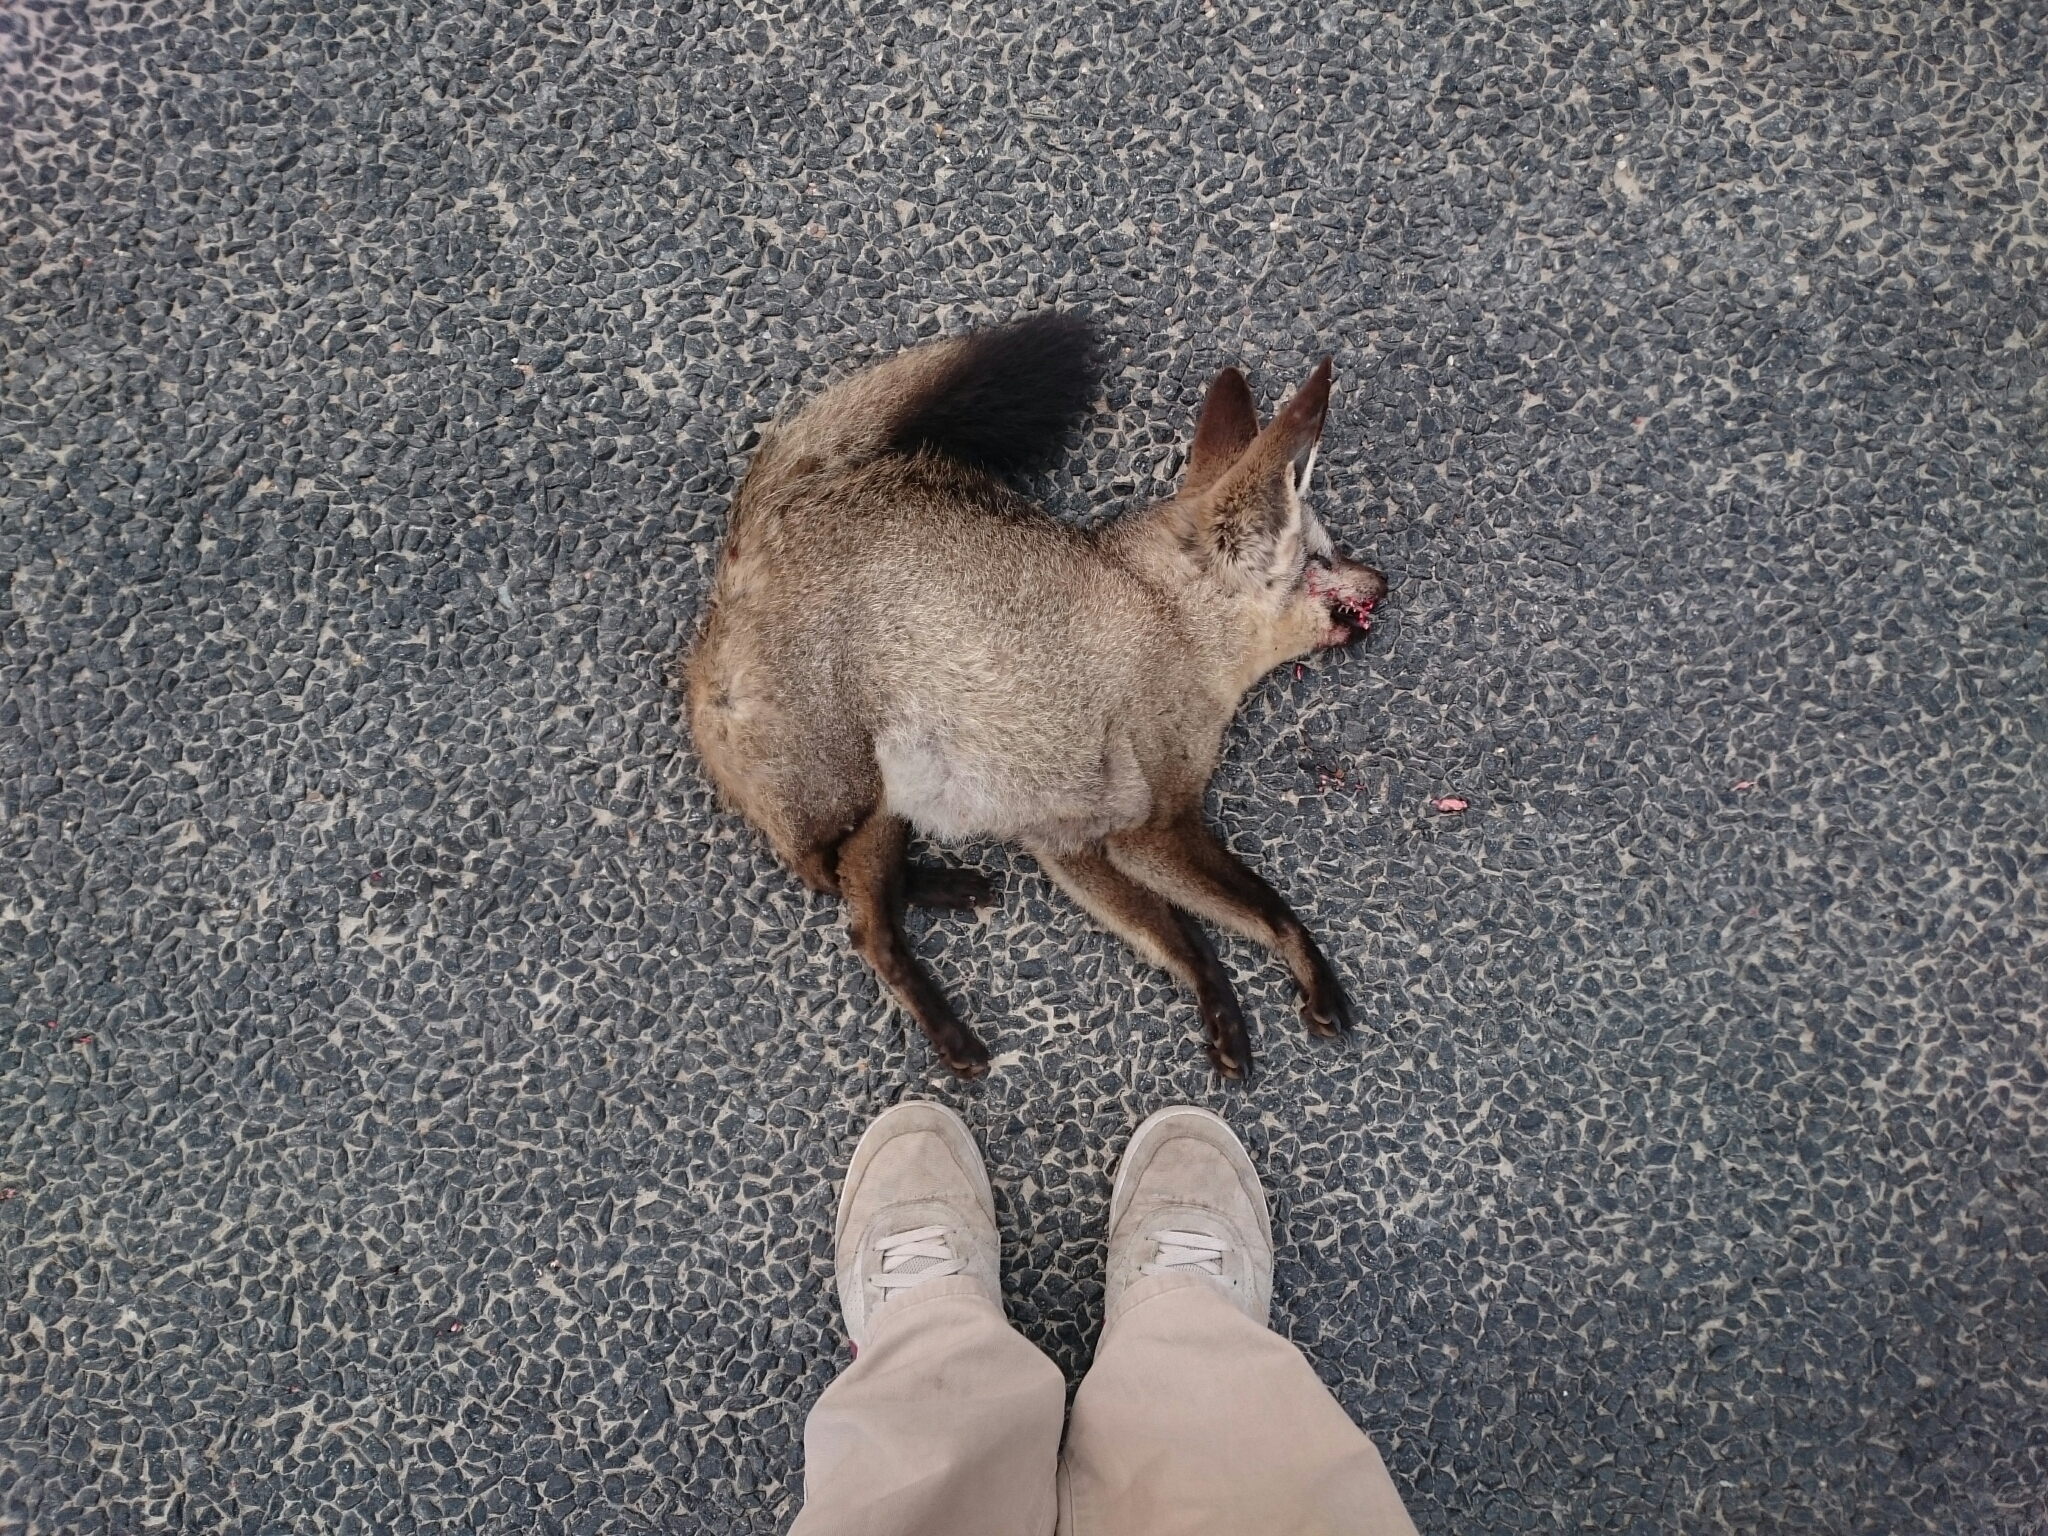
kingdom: Animalia
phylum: Chordata
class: Mammalia
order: Carnivora
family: Canidae
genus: Otocyon
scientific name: Otocyon megalotis
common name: Bat-eared fox
